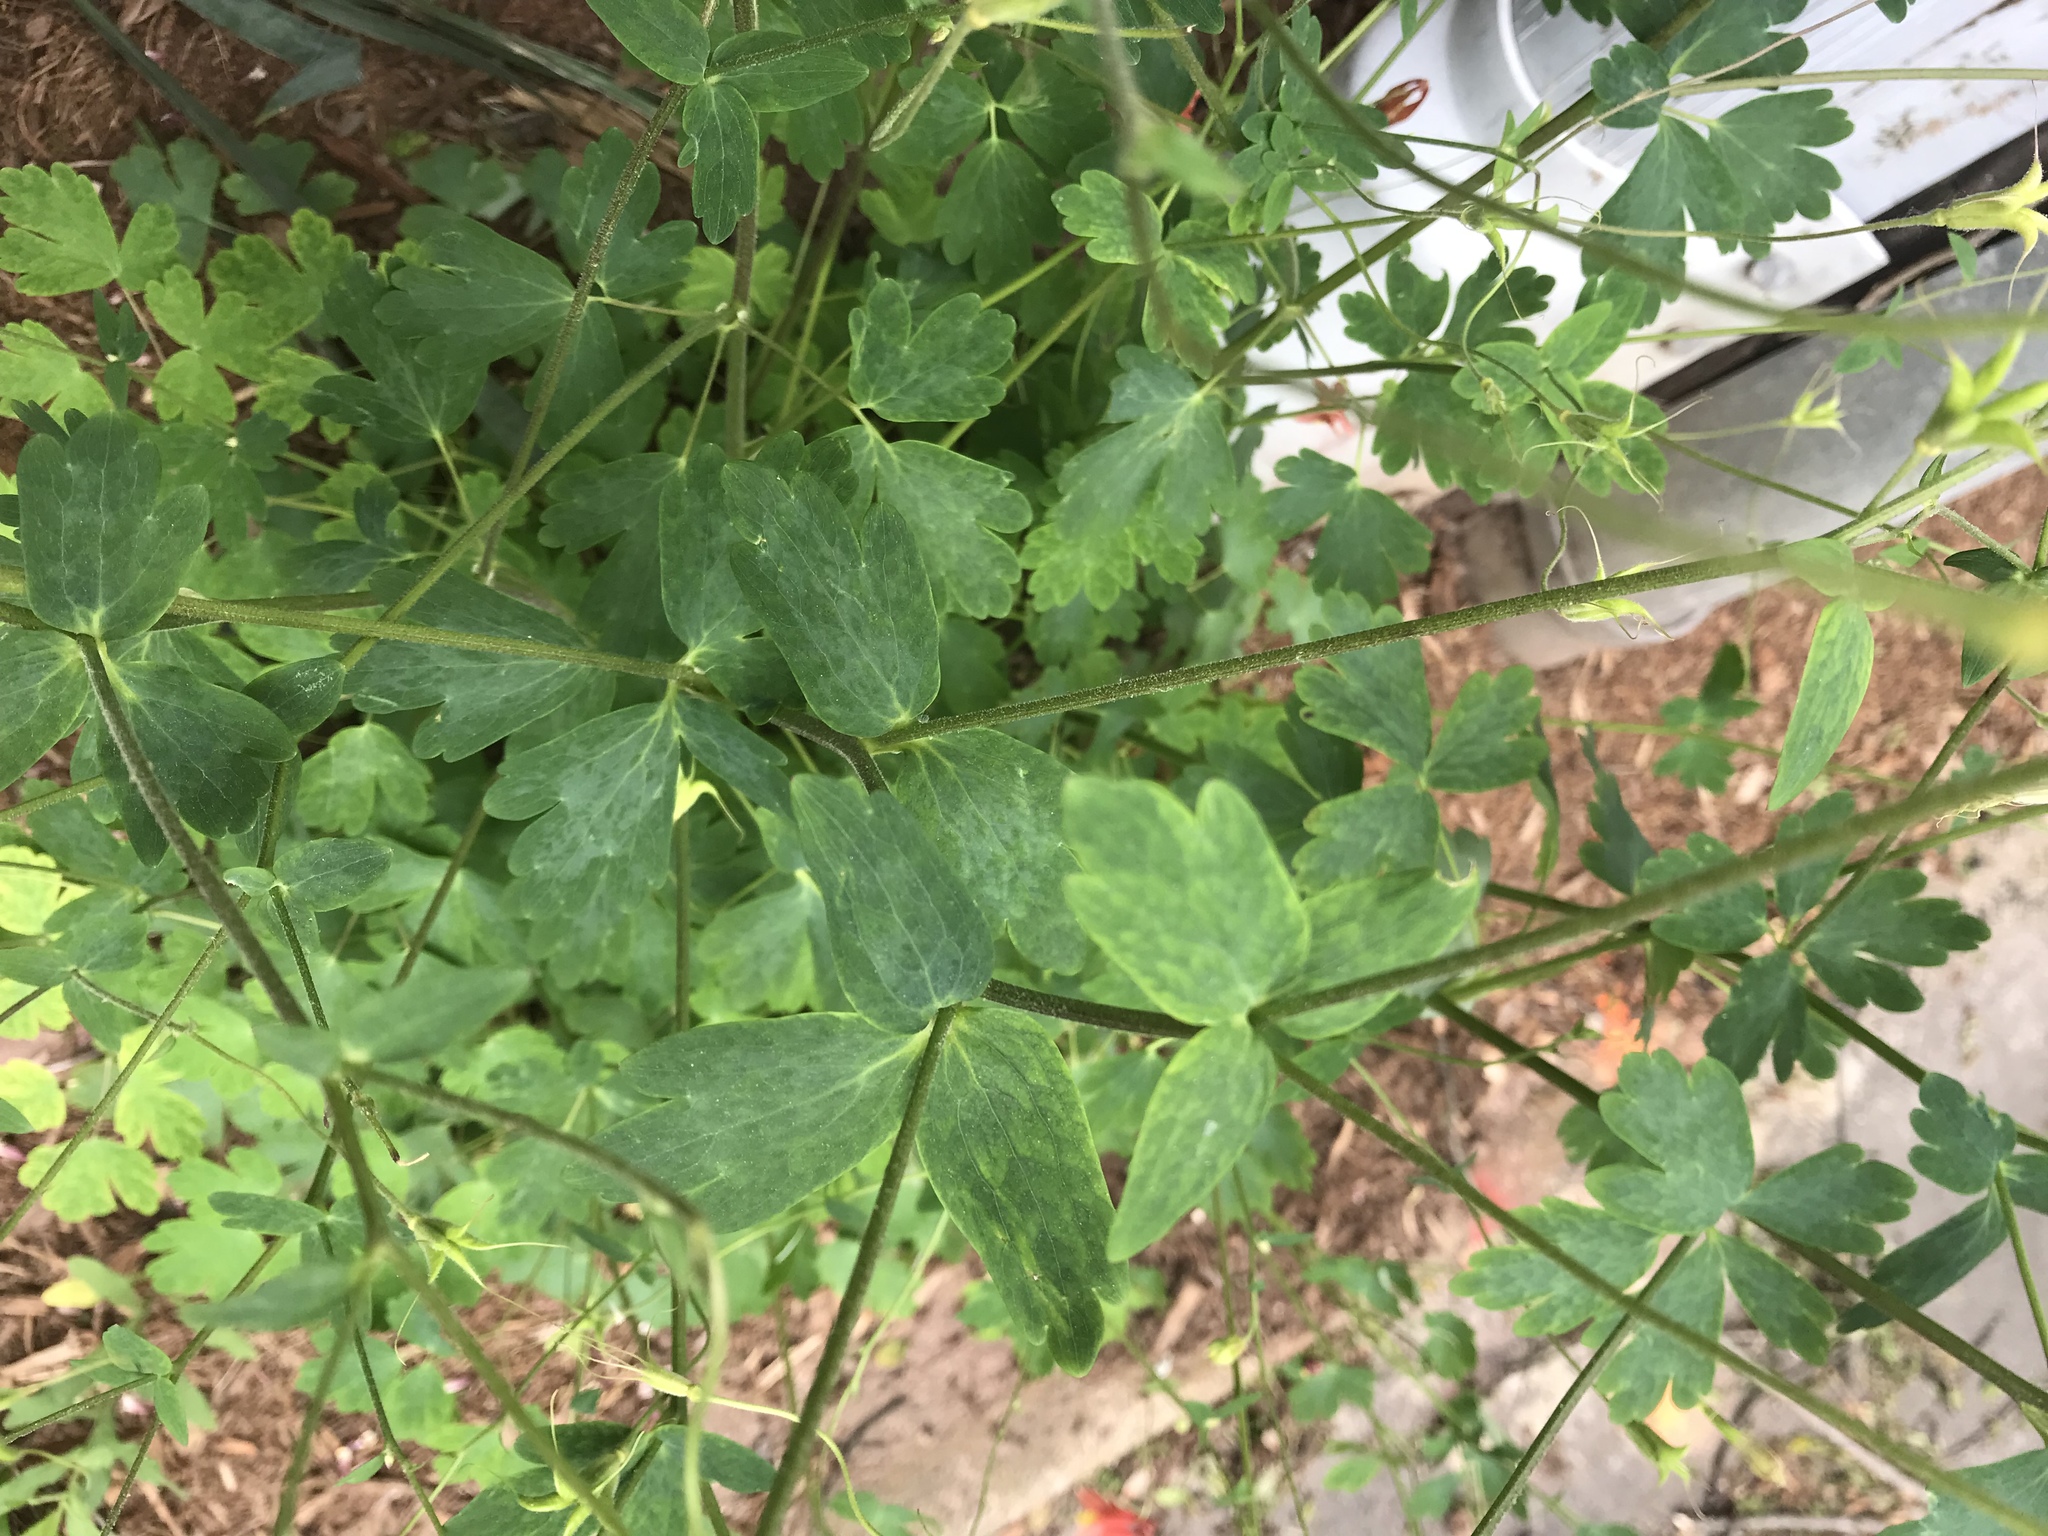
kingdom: Plantae
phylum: Tracheophyta
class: Magnoliopsida
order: Ranunculales
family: Ranunculaceae
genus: Aquilegia
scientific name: Aquilegia canadensis
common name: American columbine
